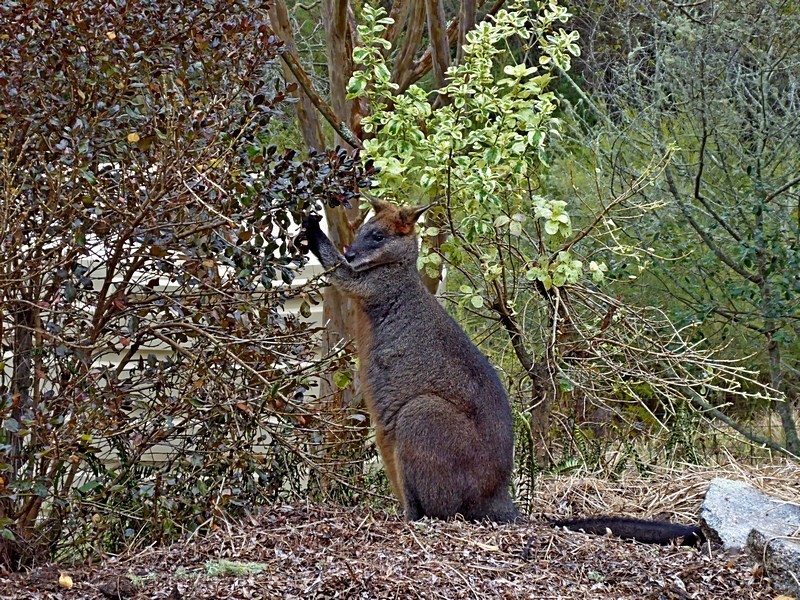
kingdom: Animalia
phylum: Chordata
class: Mammalia
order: Diprotodontia
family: Macropodidae
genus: Wallabia
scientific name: Wallabia bicolor
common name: Swamp wallaby
